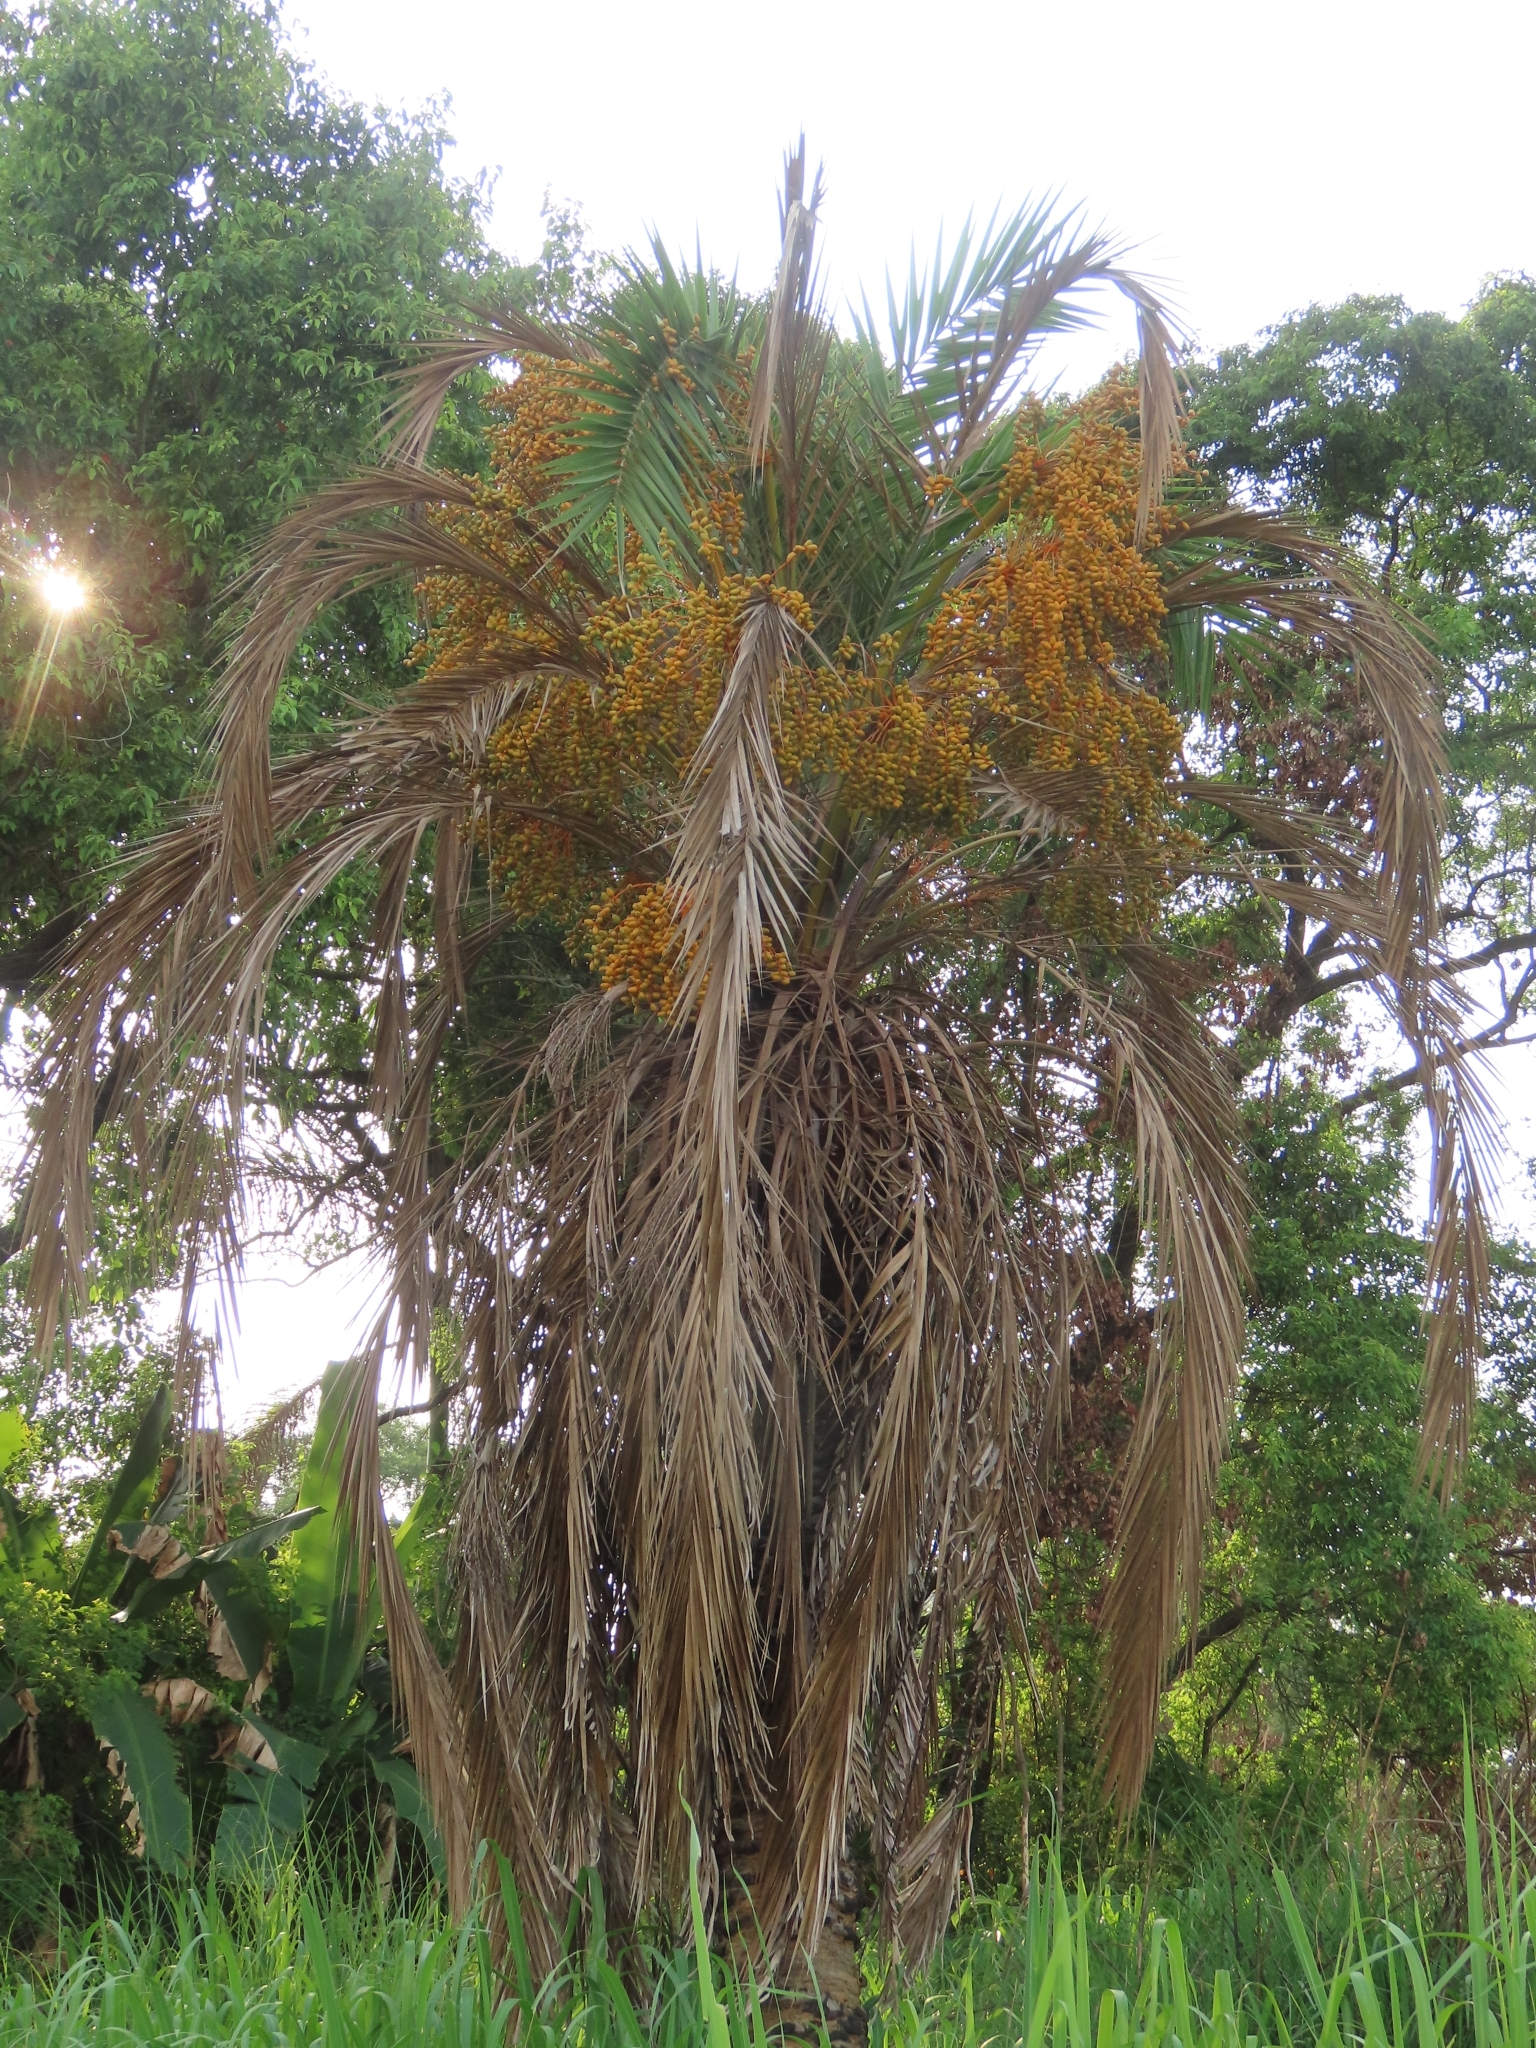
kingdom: Plantae
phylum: Tracheophyta
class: Liliopsida
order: Arecales
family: Arecaceae
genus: Phoenix
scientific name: Phoenix loureiroi
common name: Loureiro's palm
